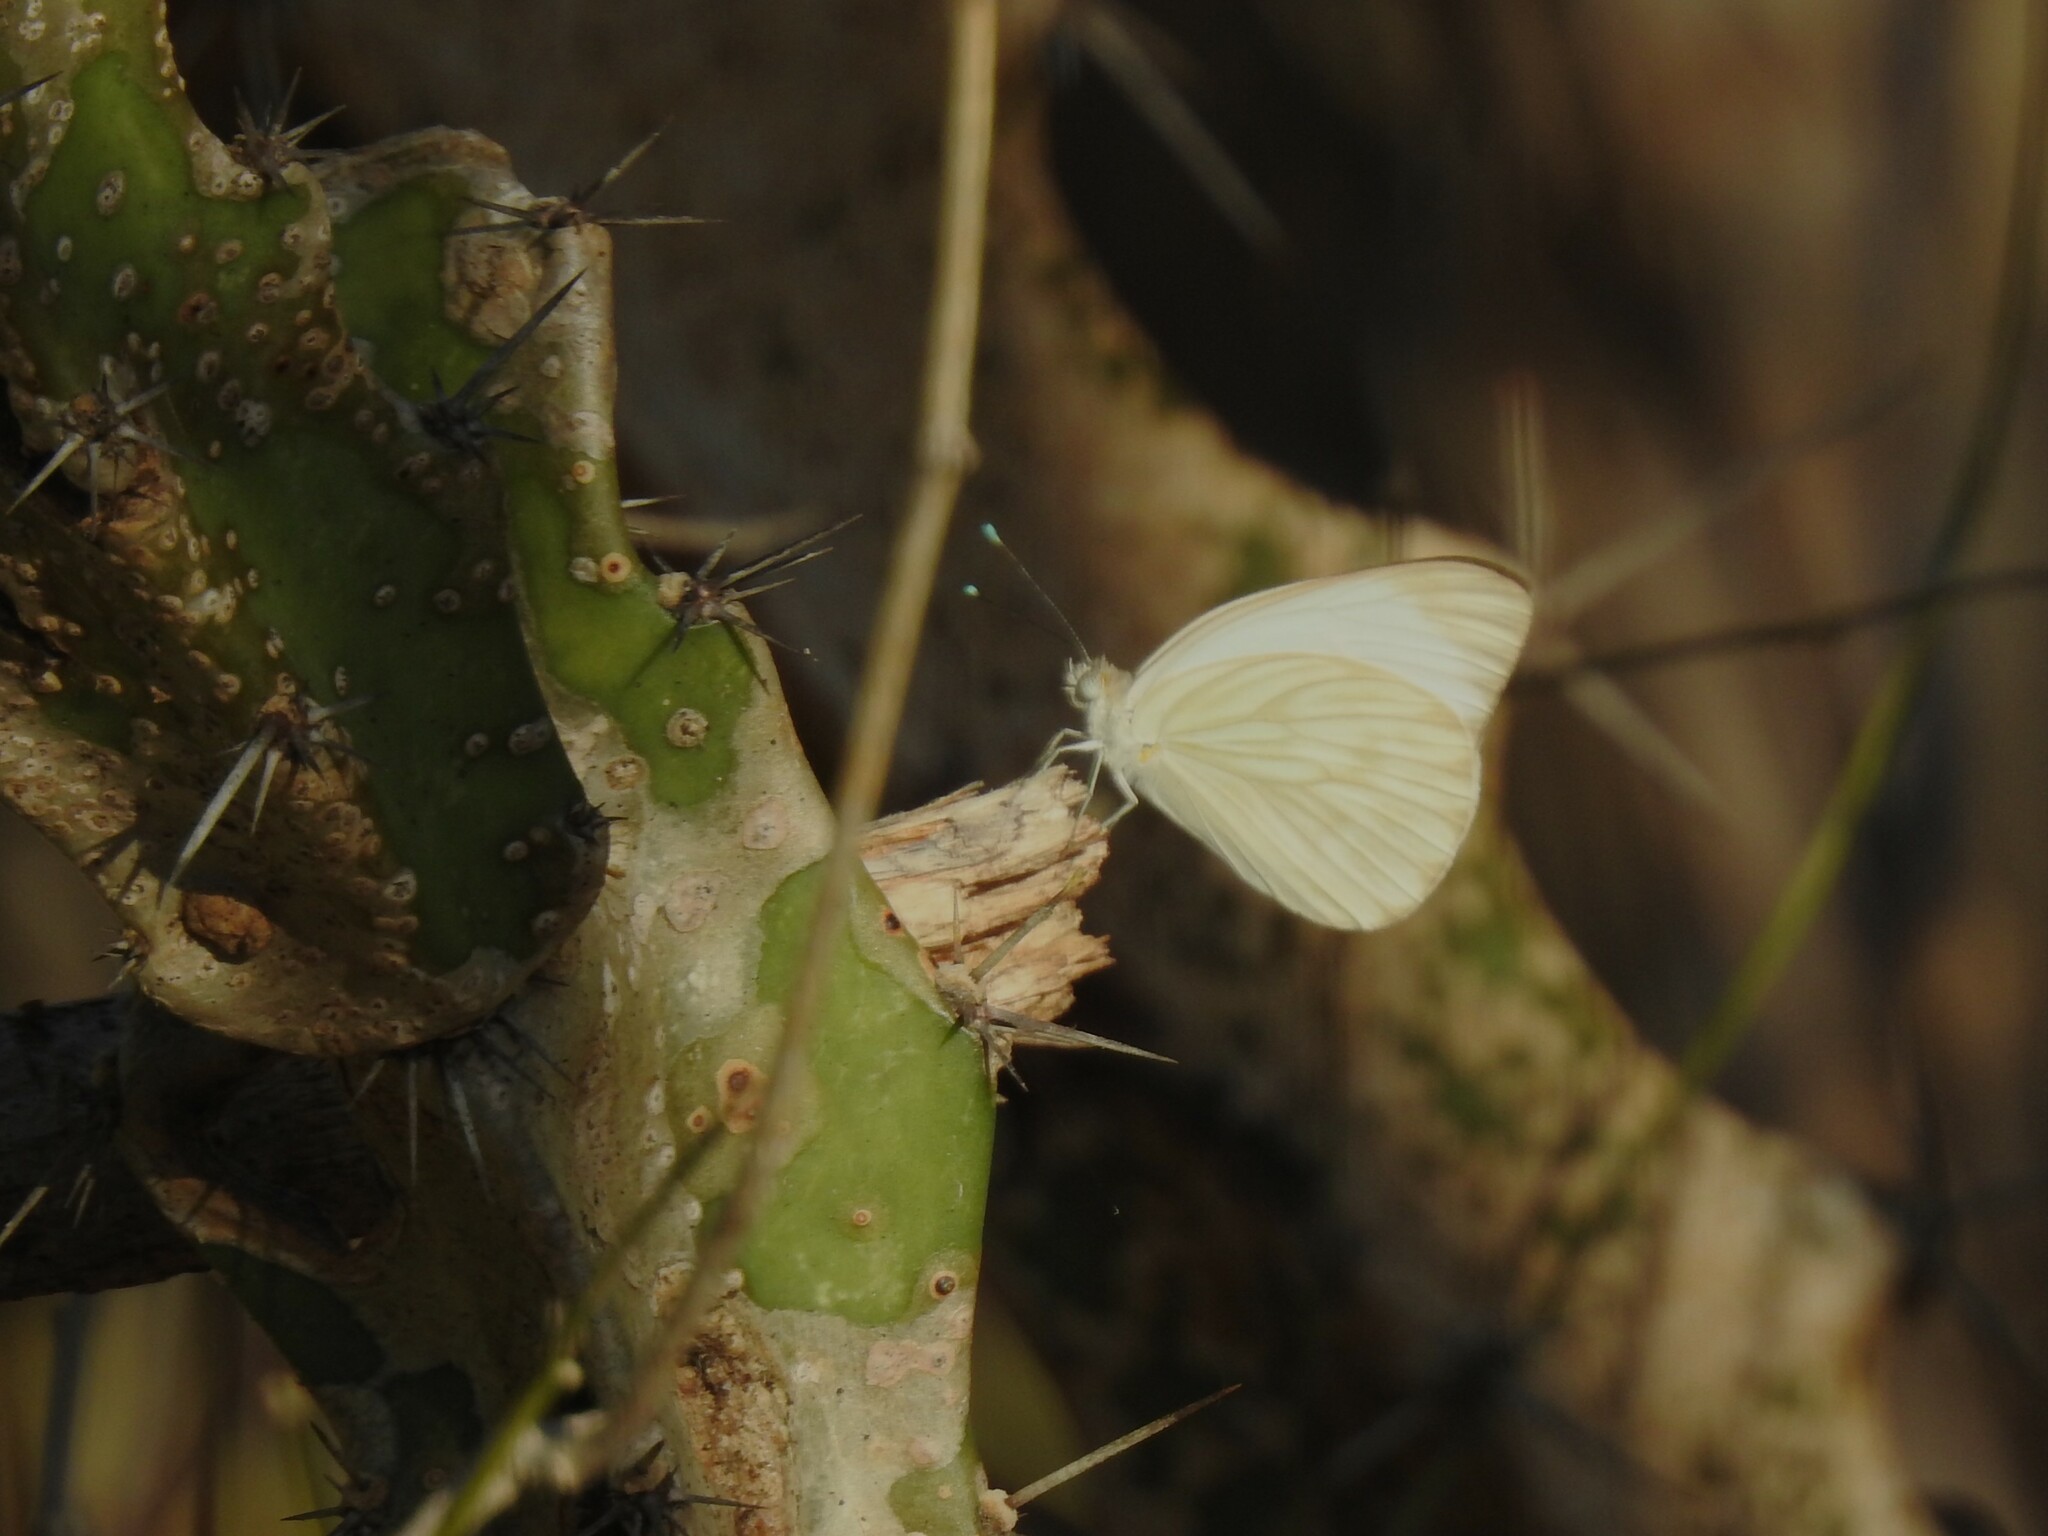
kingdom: Animalia
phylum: Arthropoda
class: Insecta
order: Lepidoptera
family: Pieridae
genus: Ascia
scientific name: Ascia monuste
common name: Great southern white
